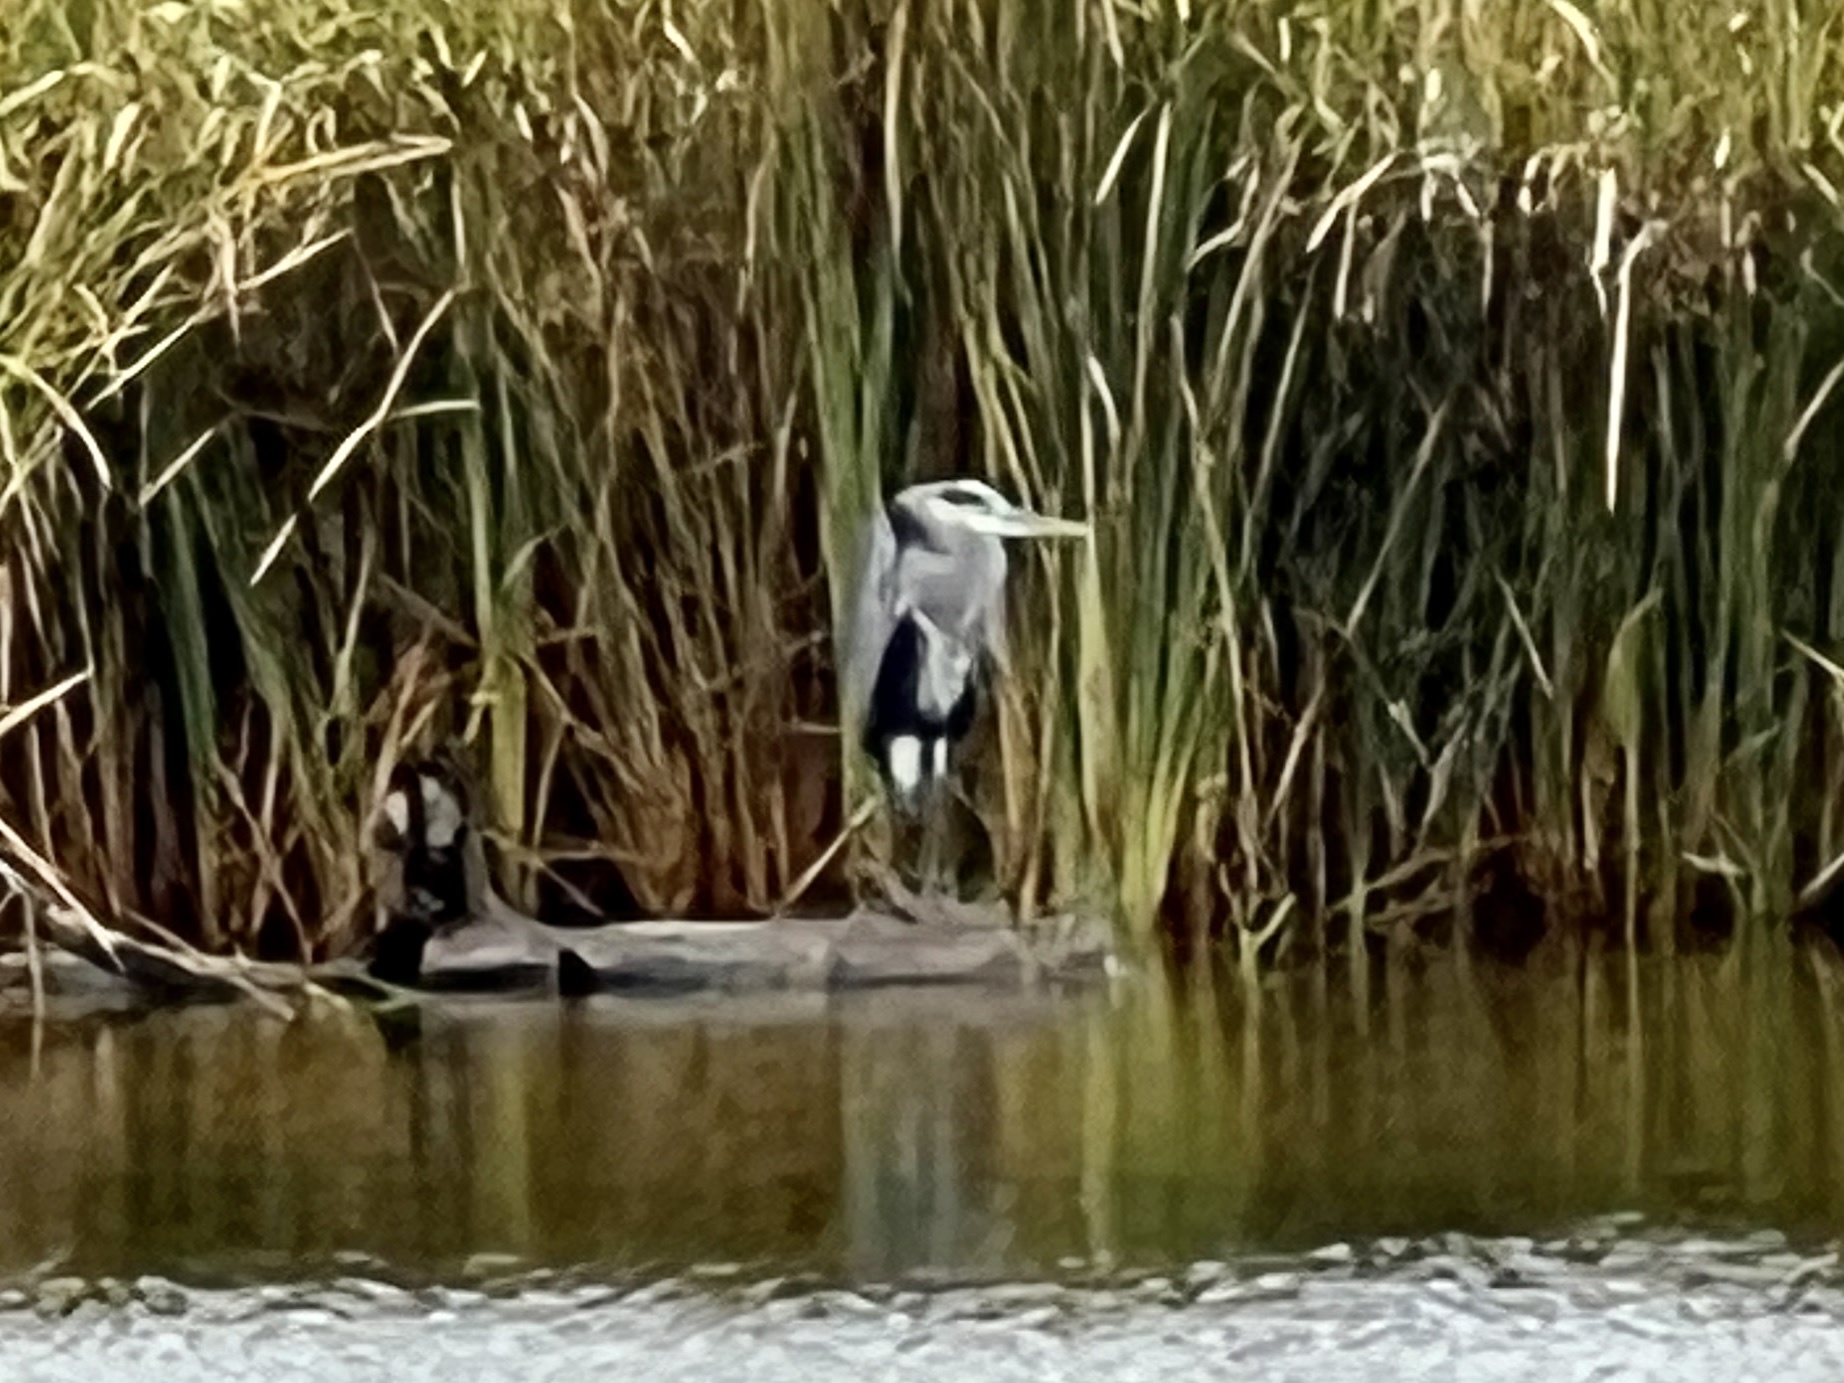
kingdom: Animalia
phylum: Chordata
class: Aves
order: Pelecaniformes
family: Ardeidae
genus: Ardea
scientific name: Ardea herodias
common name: Great blue heron
